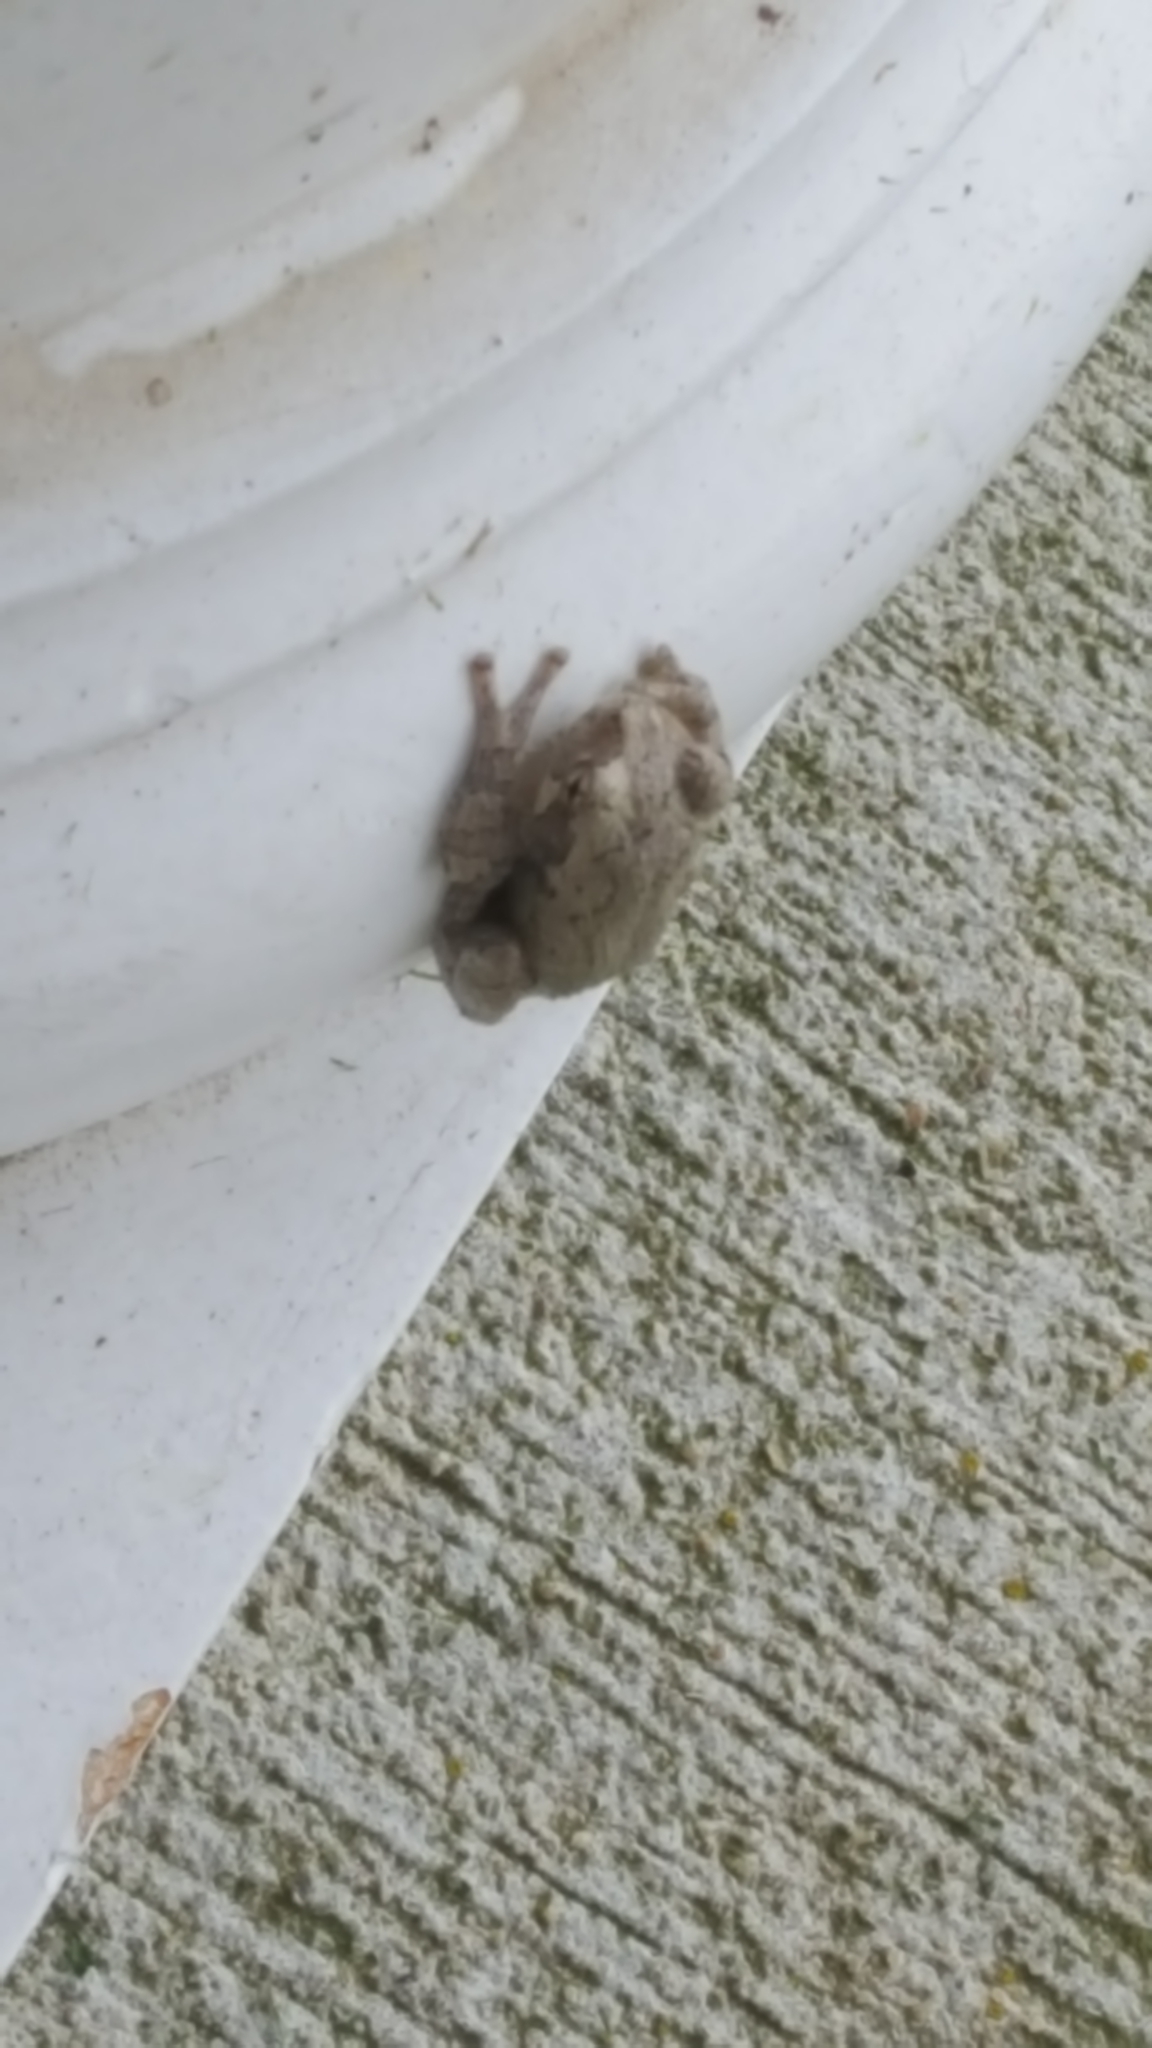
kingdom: Animalia
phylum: Chordata
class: Amphibia
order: Anura
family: Hylidae
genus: Dryophytes
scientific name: Dryophytes chrysoscelis
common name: Cope's gray treefrog
